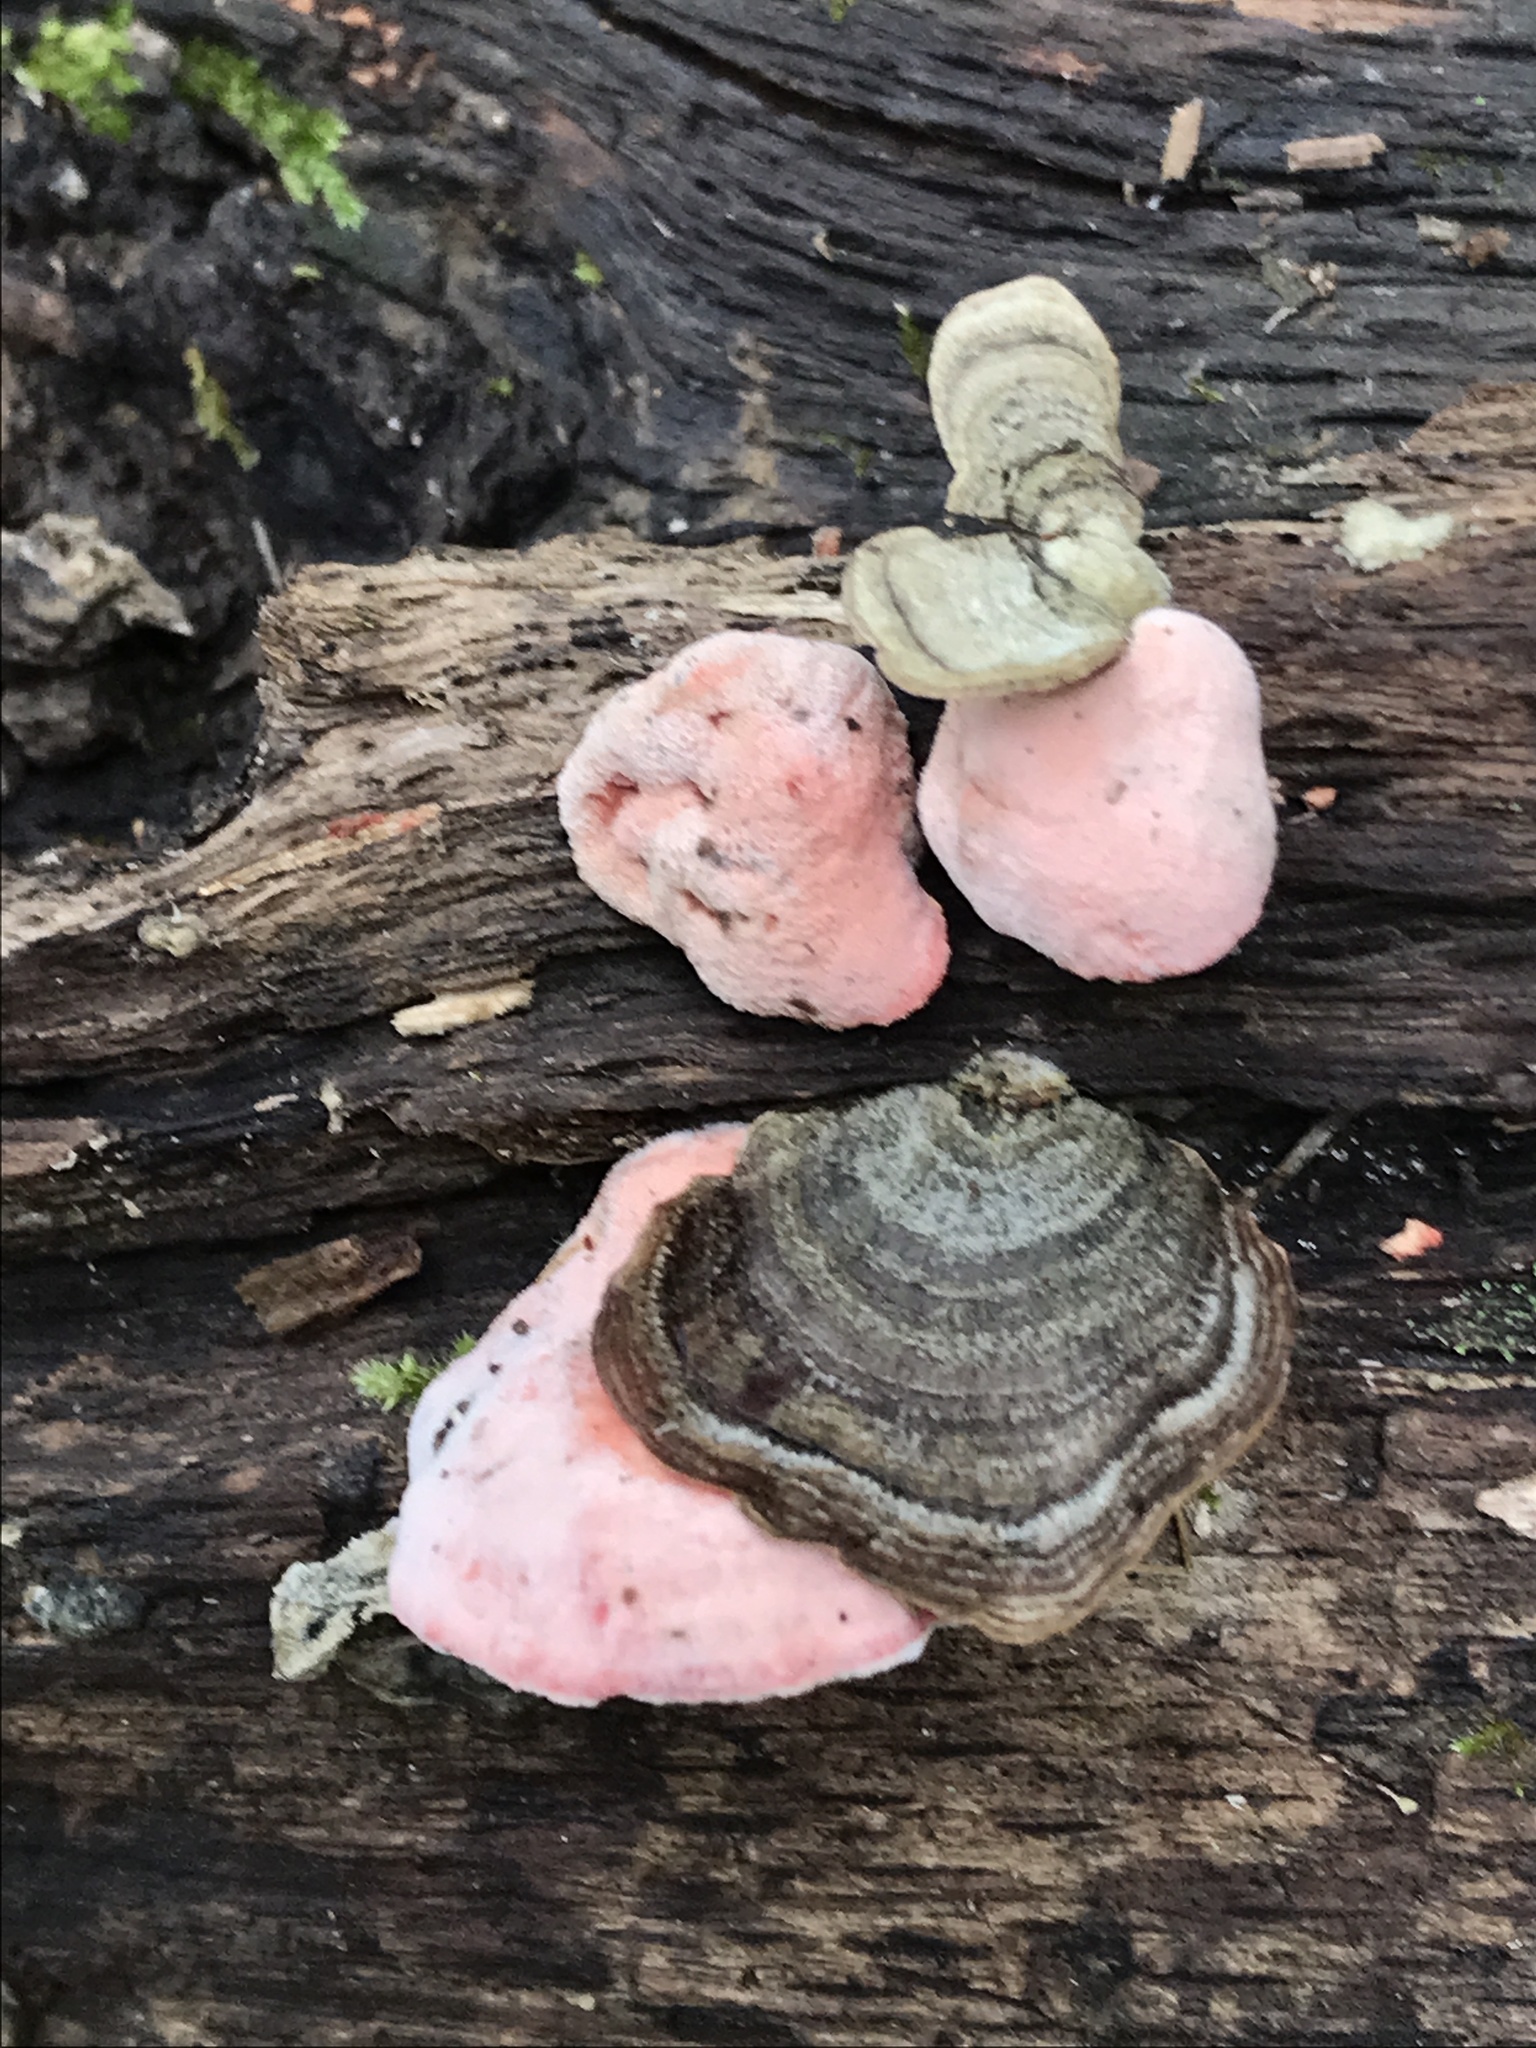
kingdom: Fungi
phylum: Basidiomycota
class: Agaricomycetes
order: Polyporales
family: Irpicaceae
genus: Byssomerulius
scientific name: Byssomerulius incarnatus
